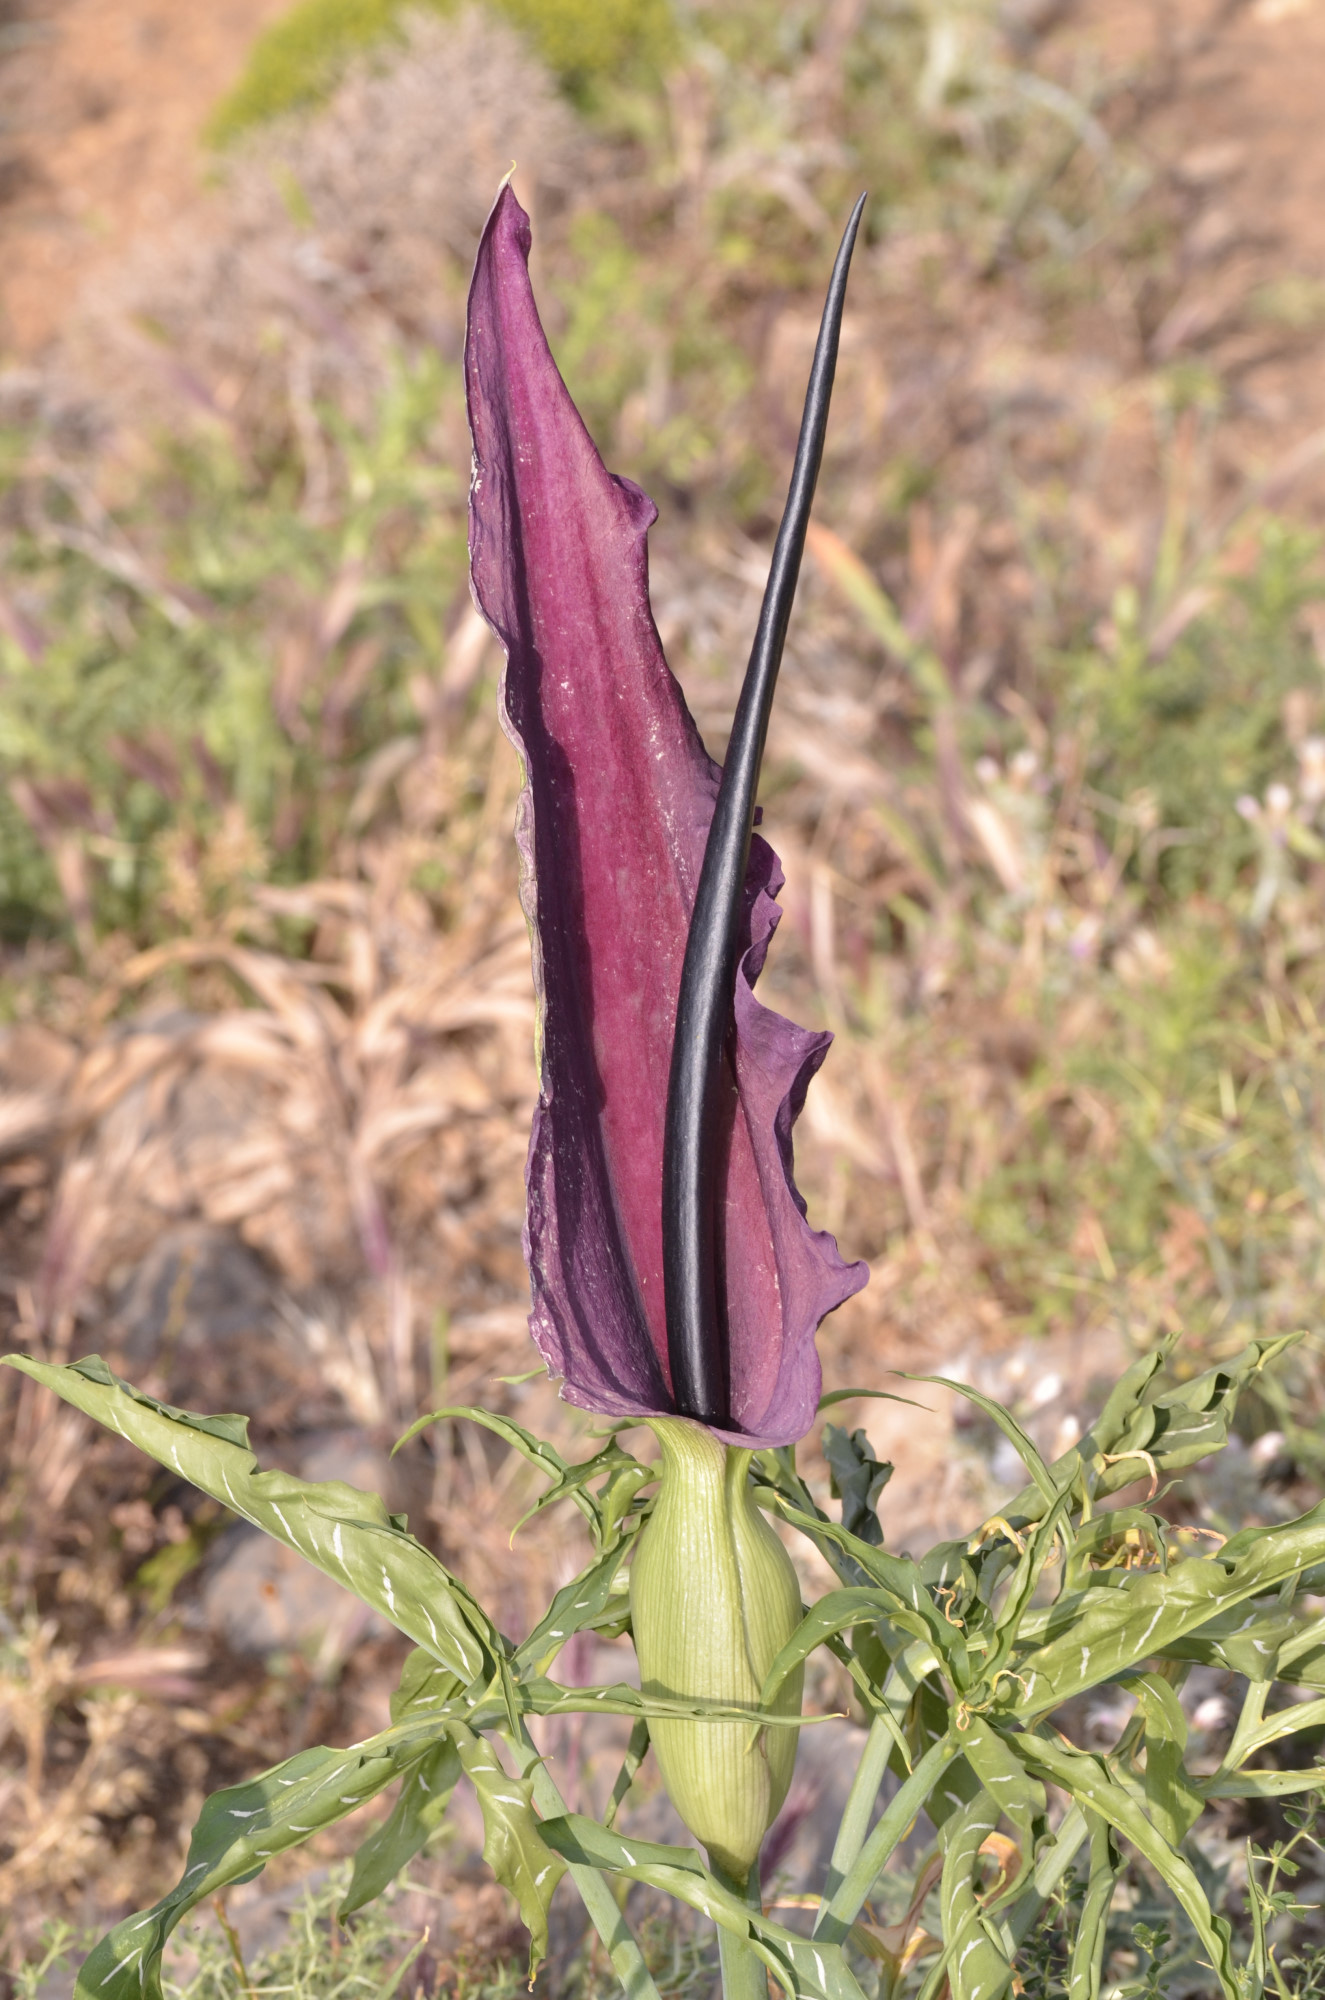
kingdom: Plantae
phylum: Tracheophyta
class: Liliopsida
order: Alismatales
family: Araceae
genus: Dracunculus
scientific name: Dracunculus vulgaris
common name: Dragon arum
